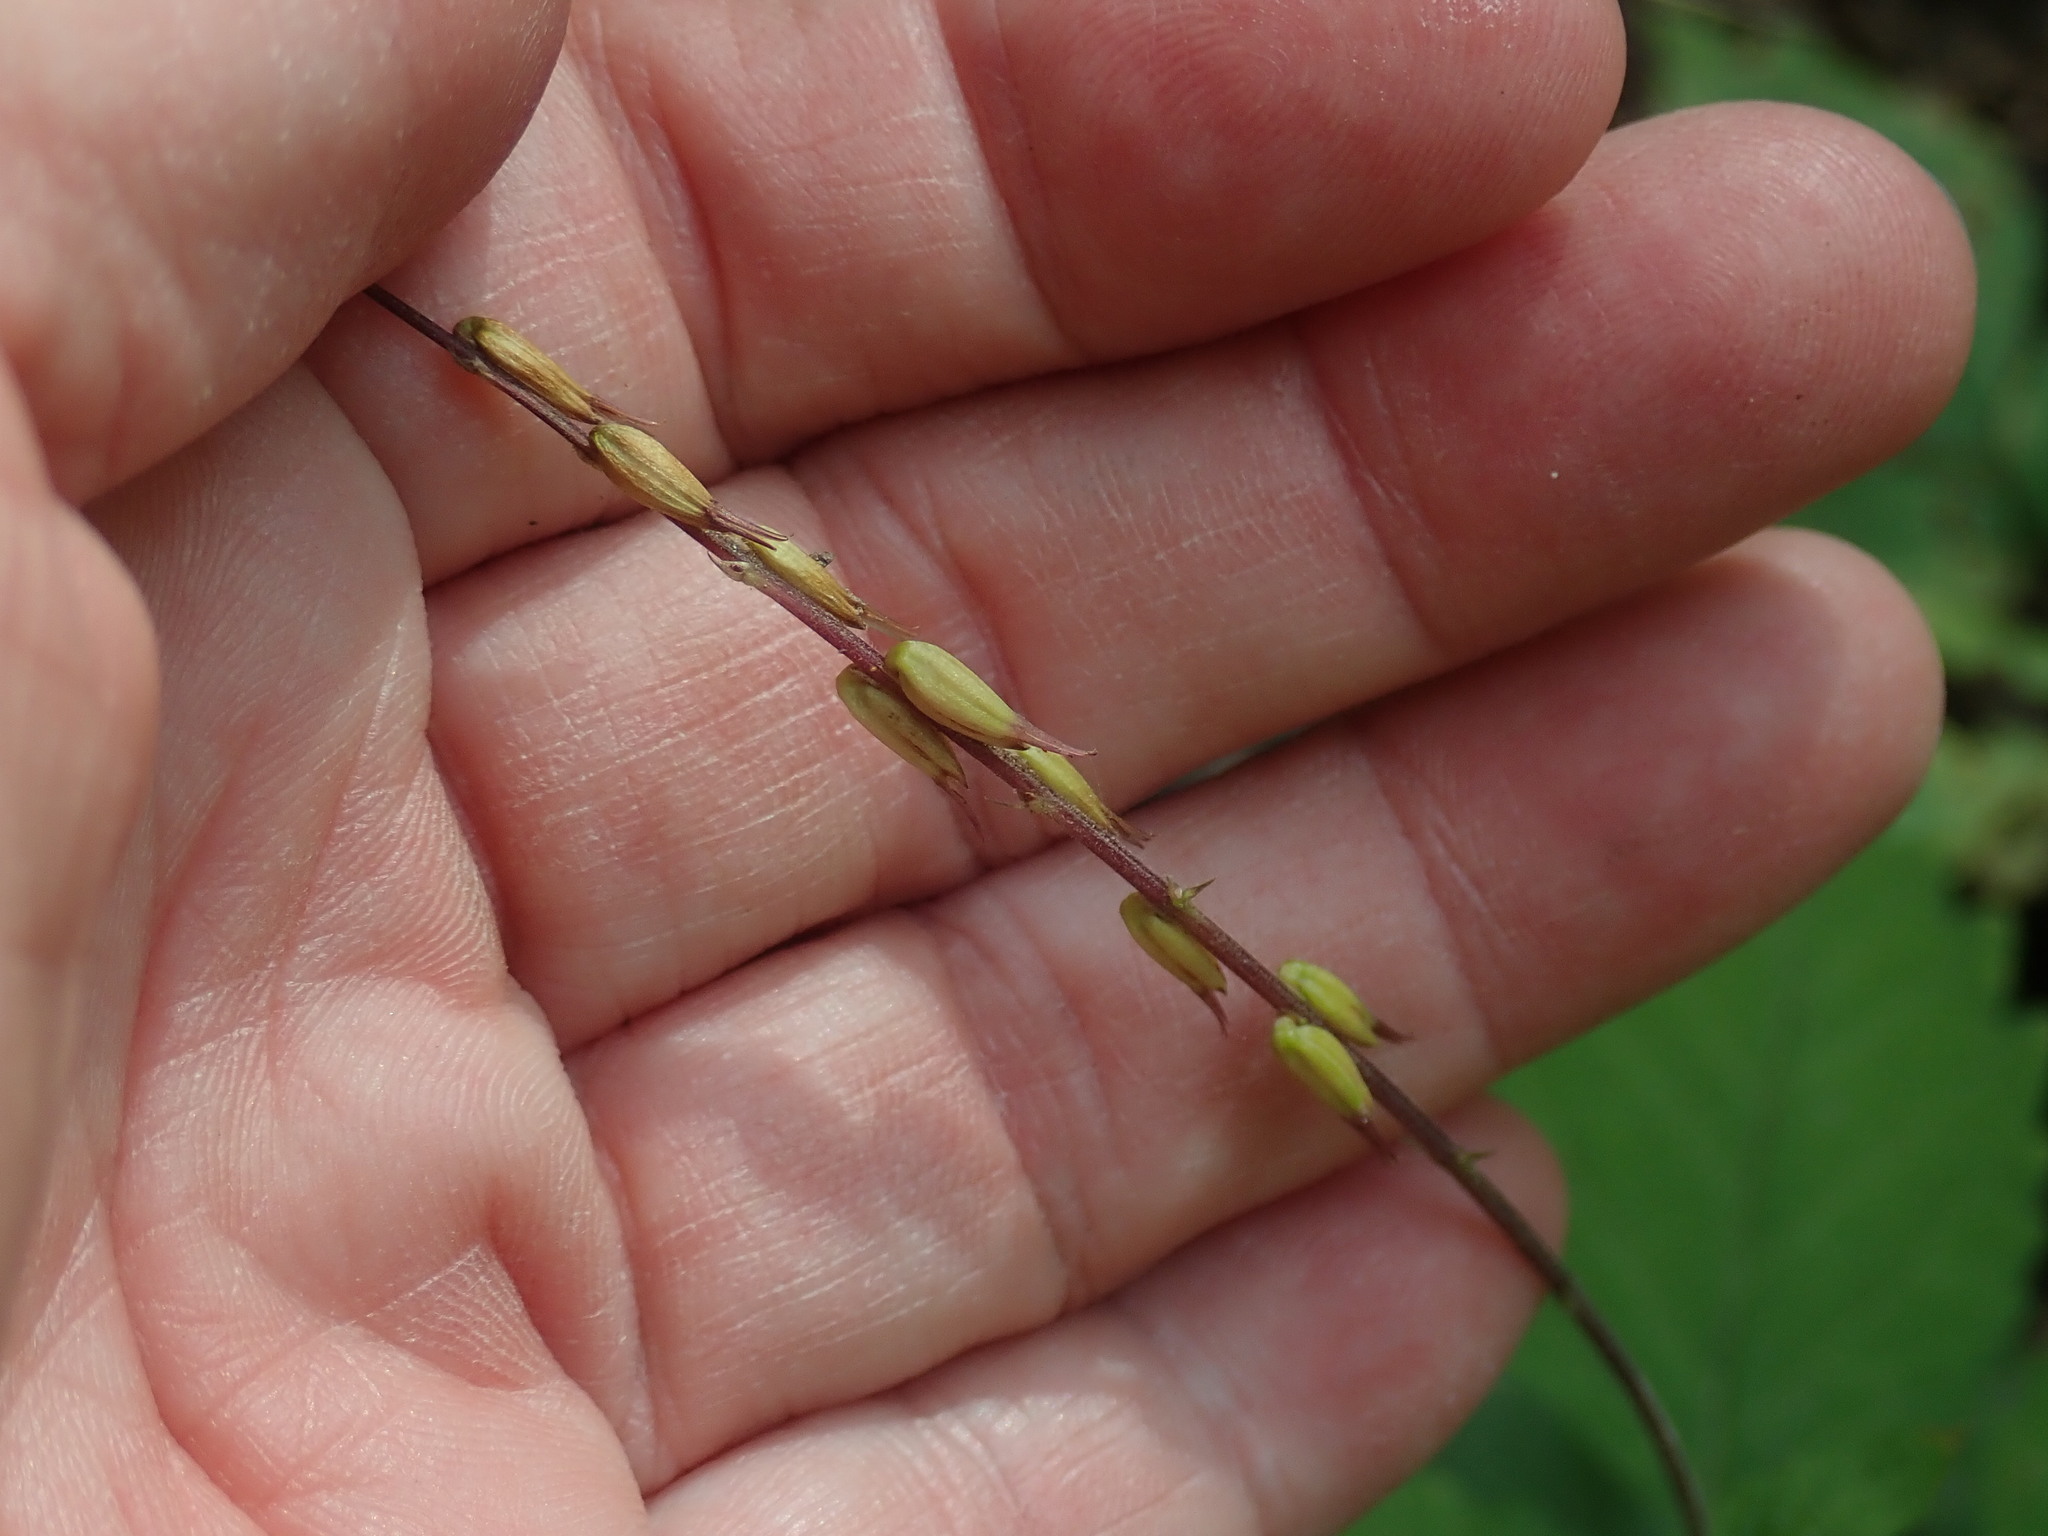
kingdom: Plantae
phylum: Tracheophyta
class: Magnoliopsida
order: Lamiales
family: Phrymaceae
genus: Phryma
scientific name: Phryma leptostachya
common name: American lopseed
